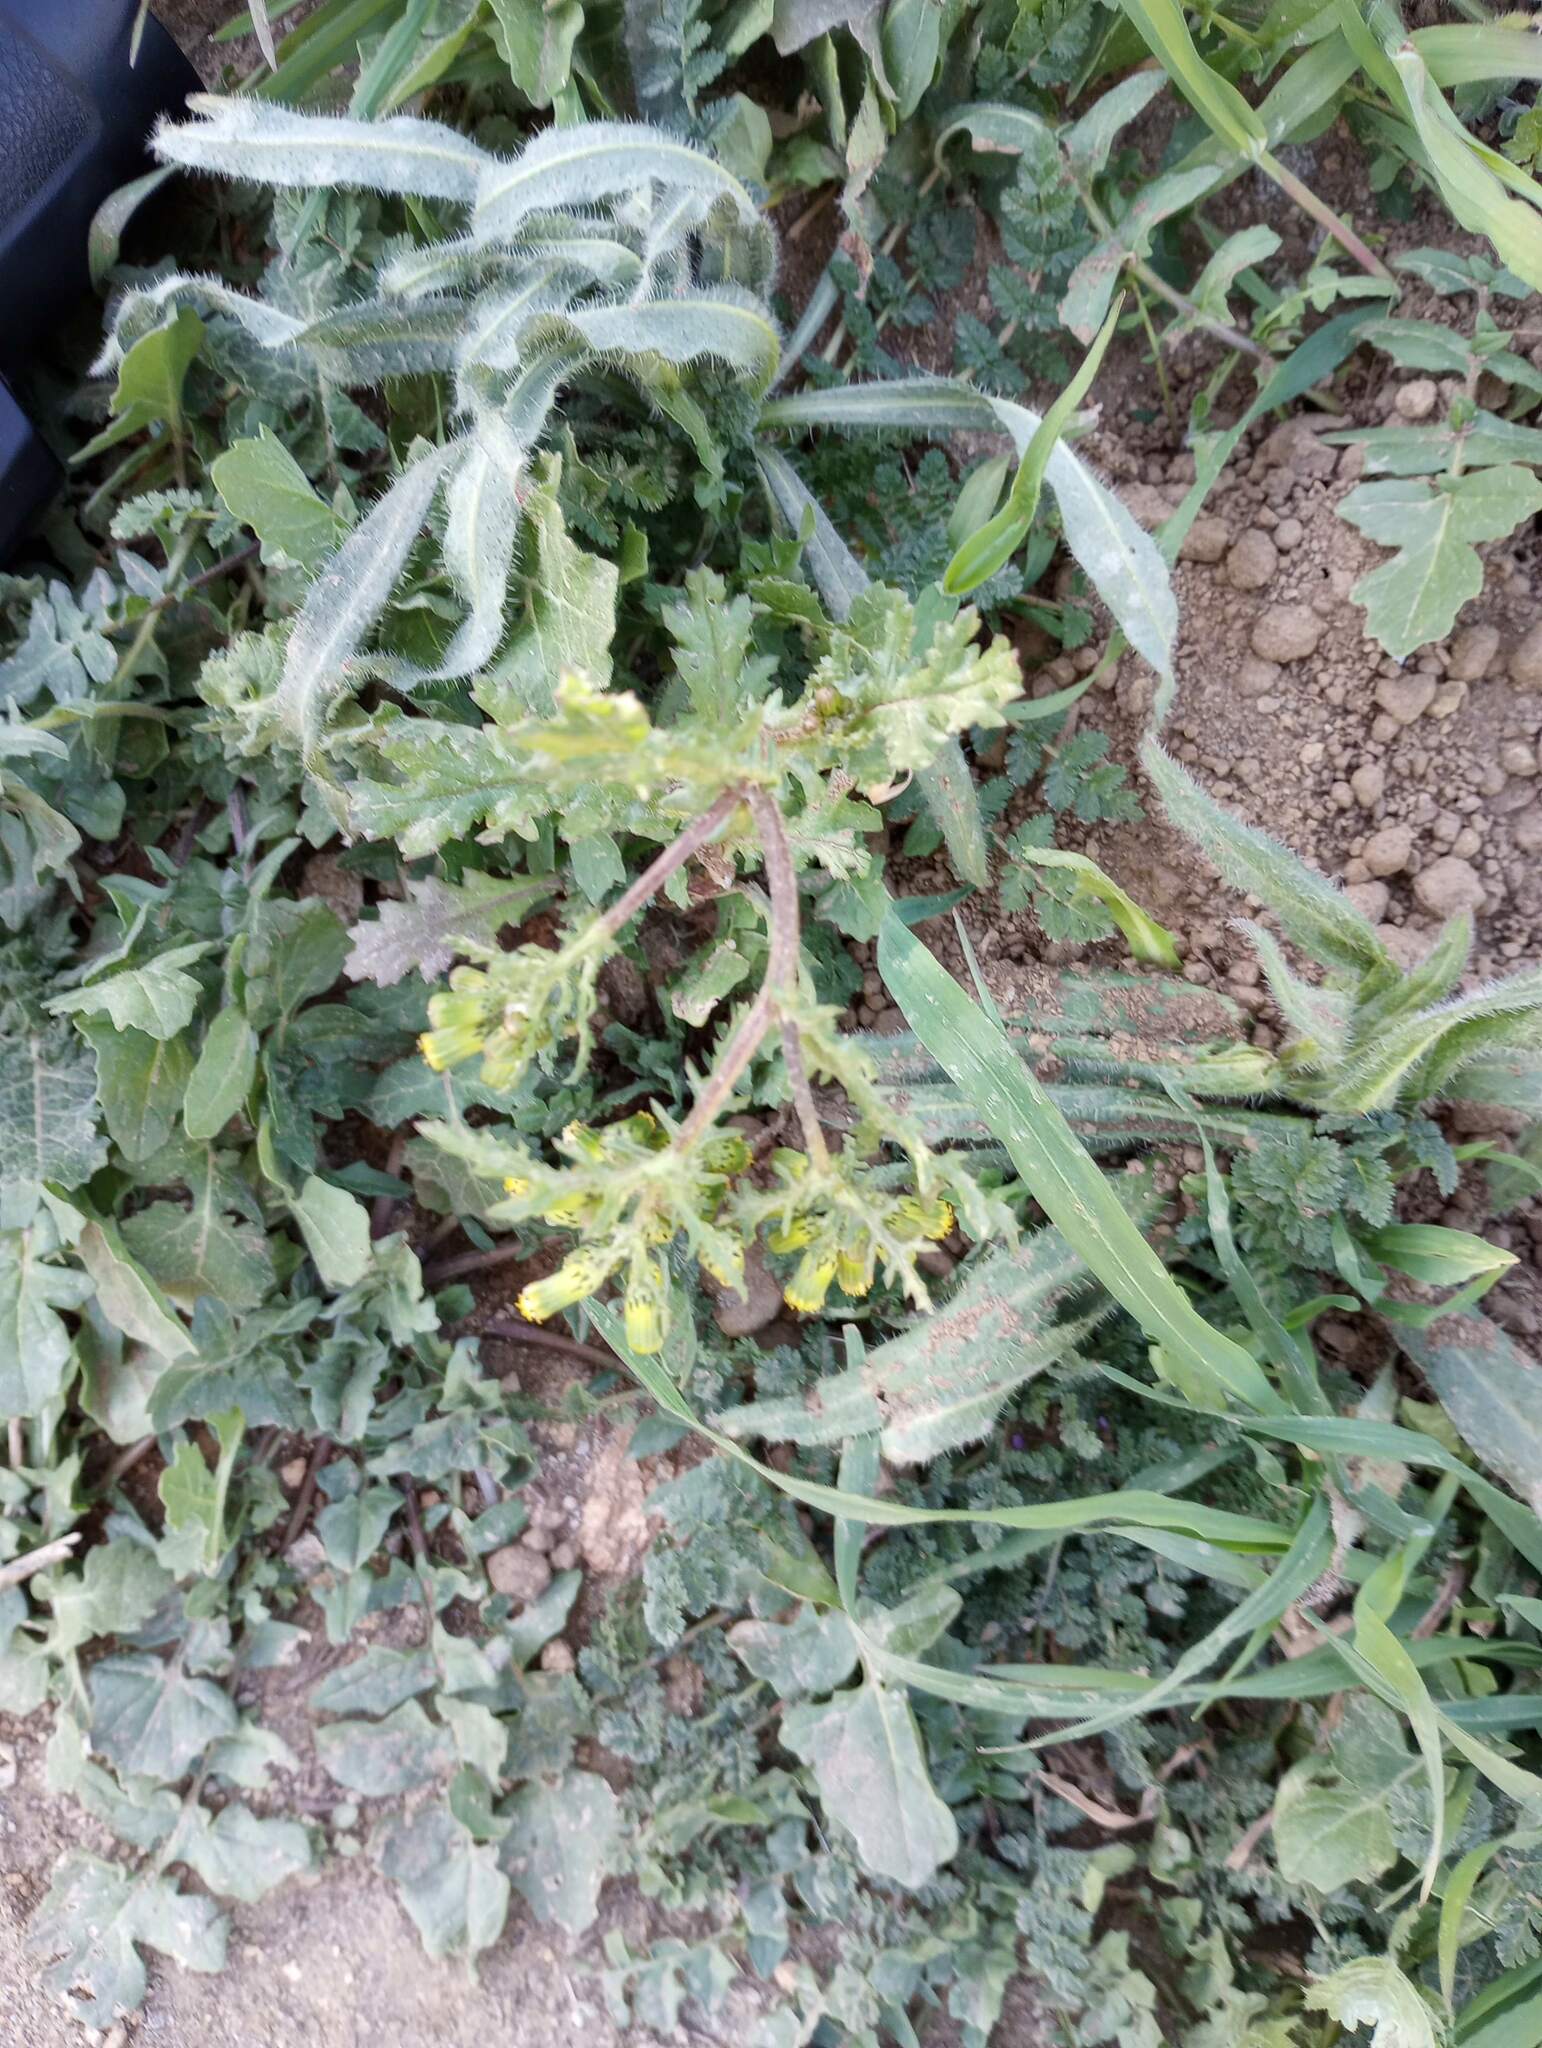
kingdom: Plantae
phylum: Tracheophyta
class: Magnoliopsida
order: Asterales
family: Asteraceae
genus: Senecio
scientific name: Senecio vulgaris
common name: Old-man-in-the-spring
